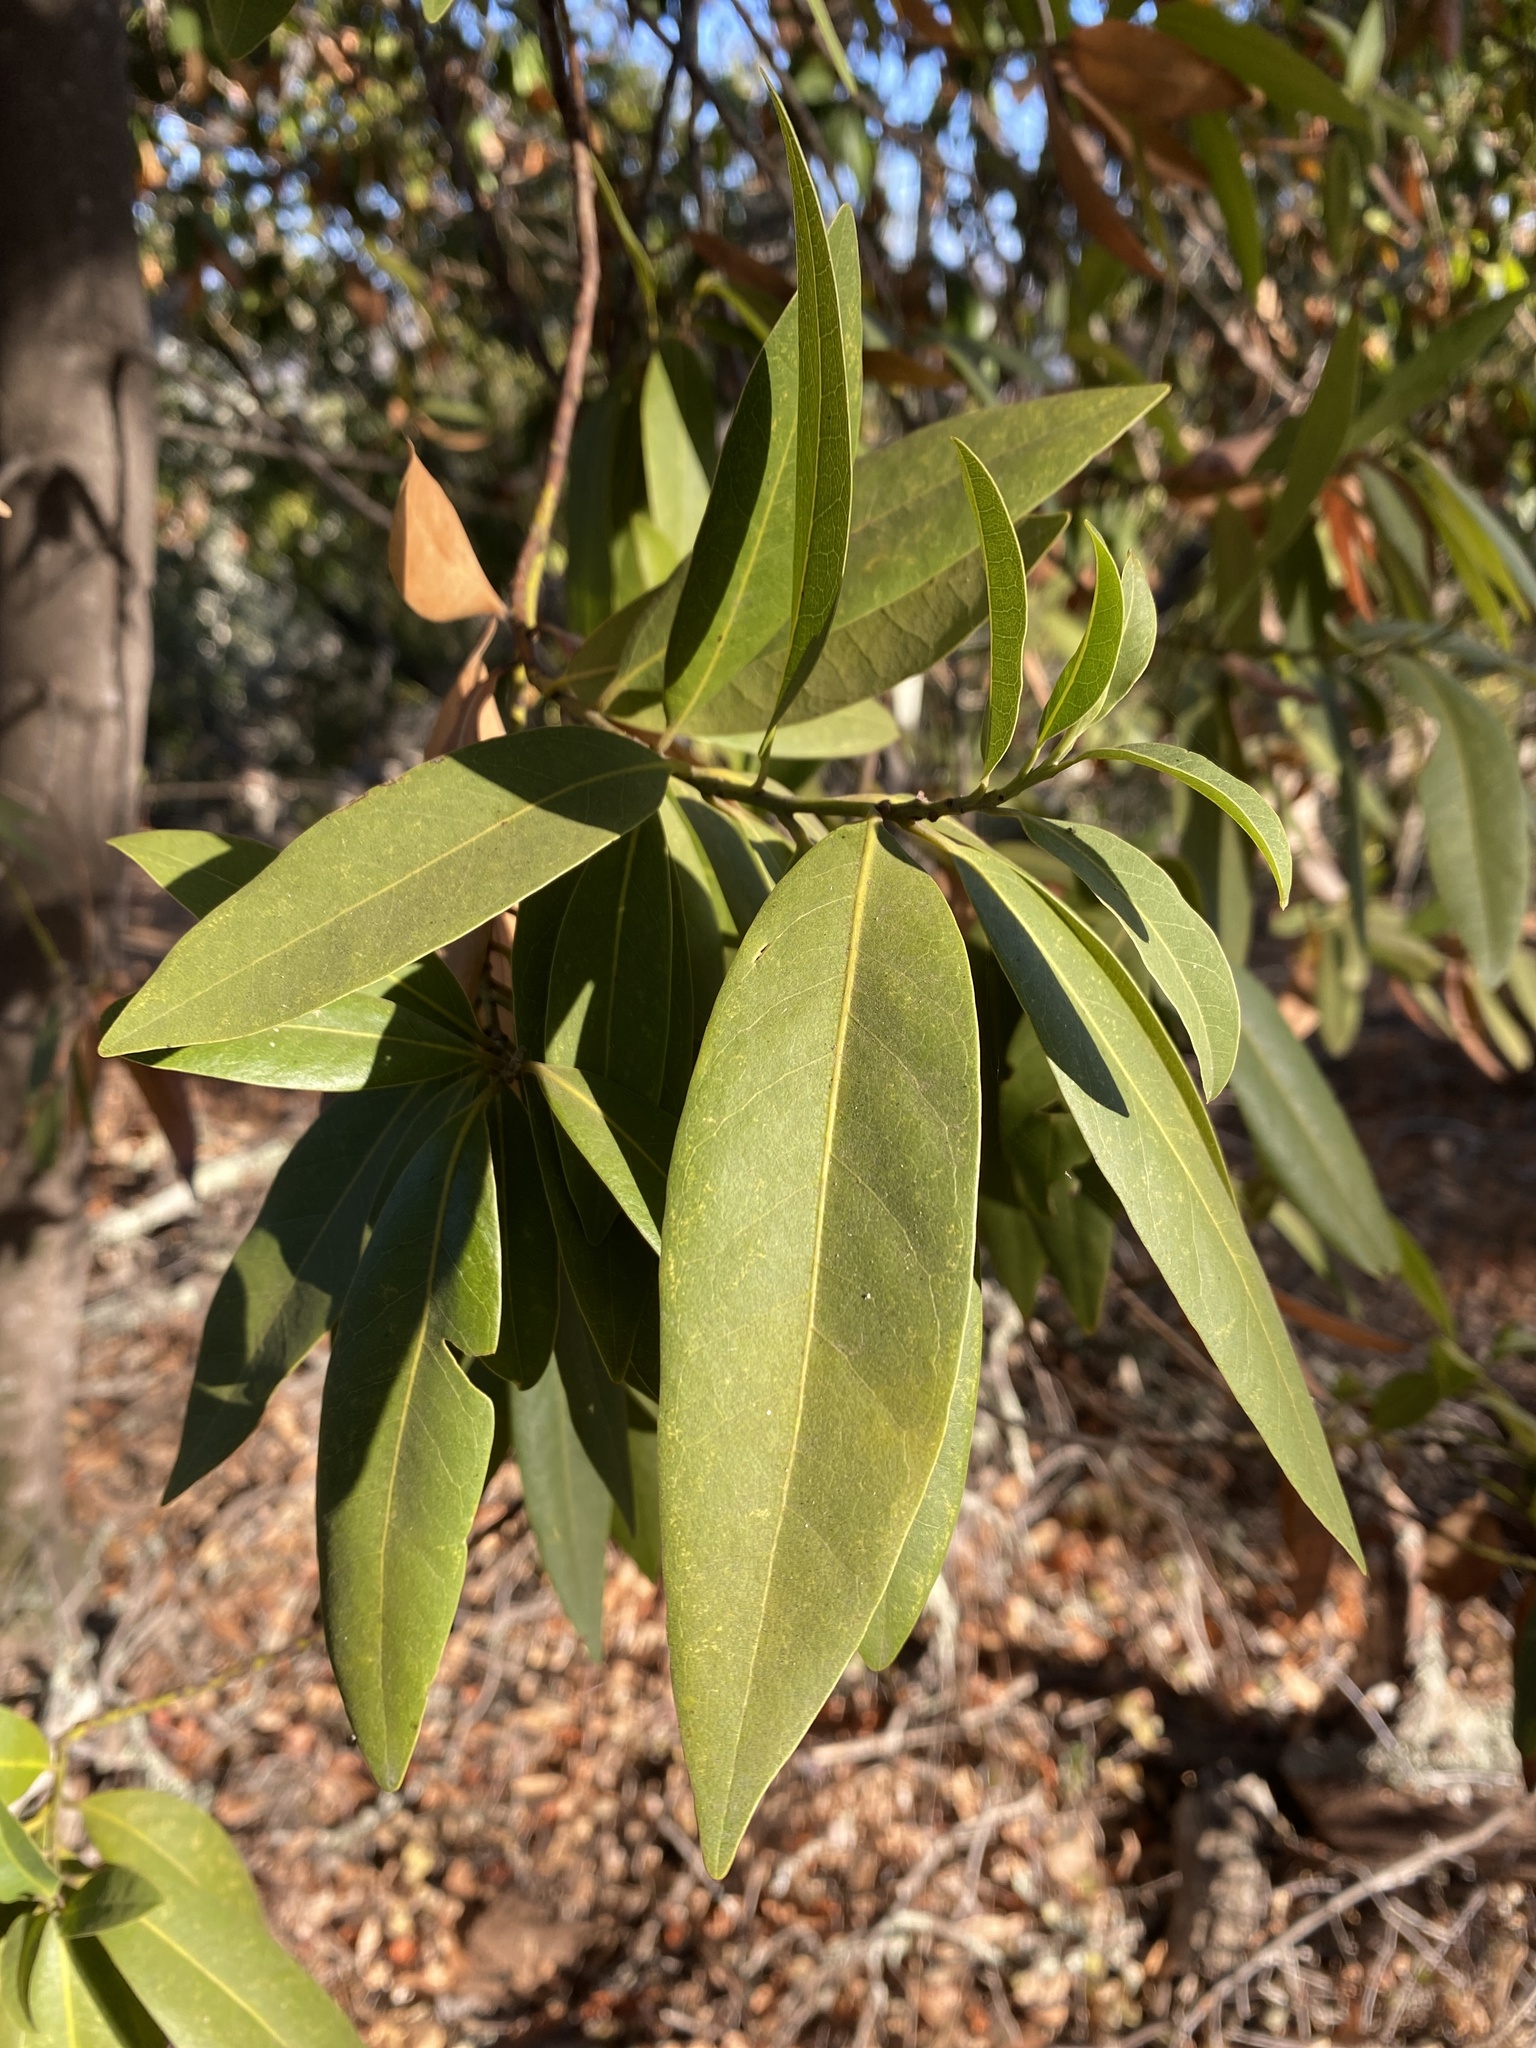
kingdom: Plantae
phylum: Tracheophyta
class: Magnoliopsida
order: Laurales
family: Lauraceae
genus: Umbellularia
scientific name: Umbellularia californica
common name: California bay
